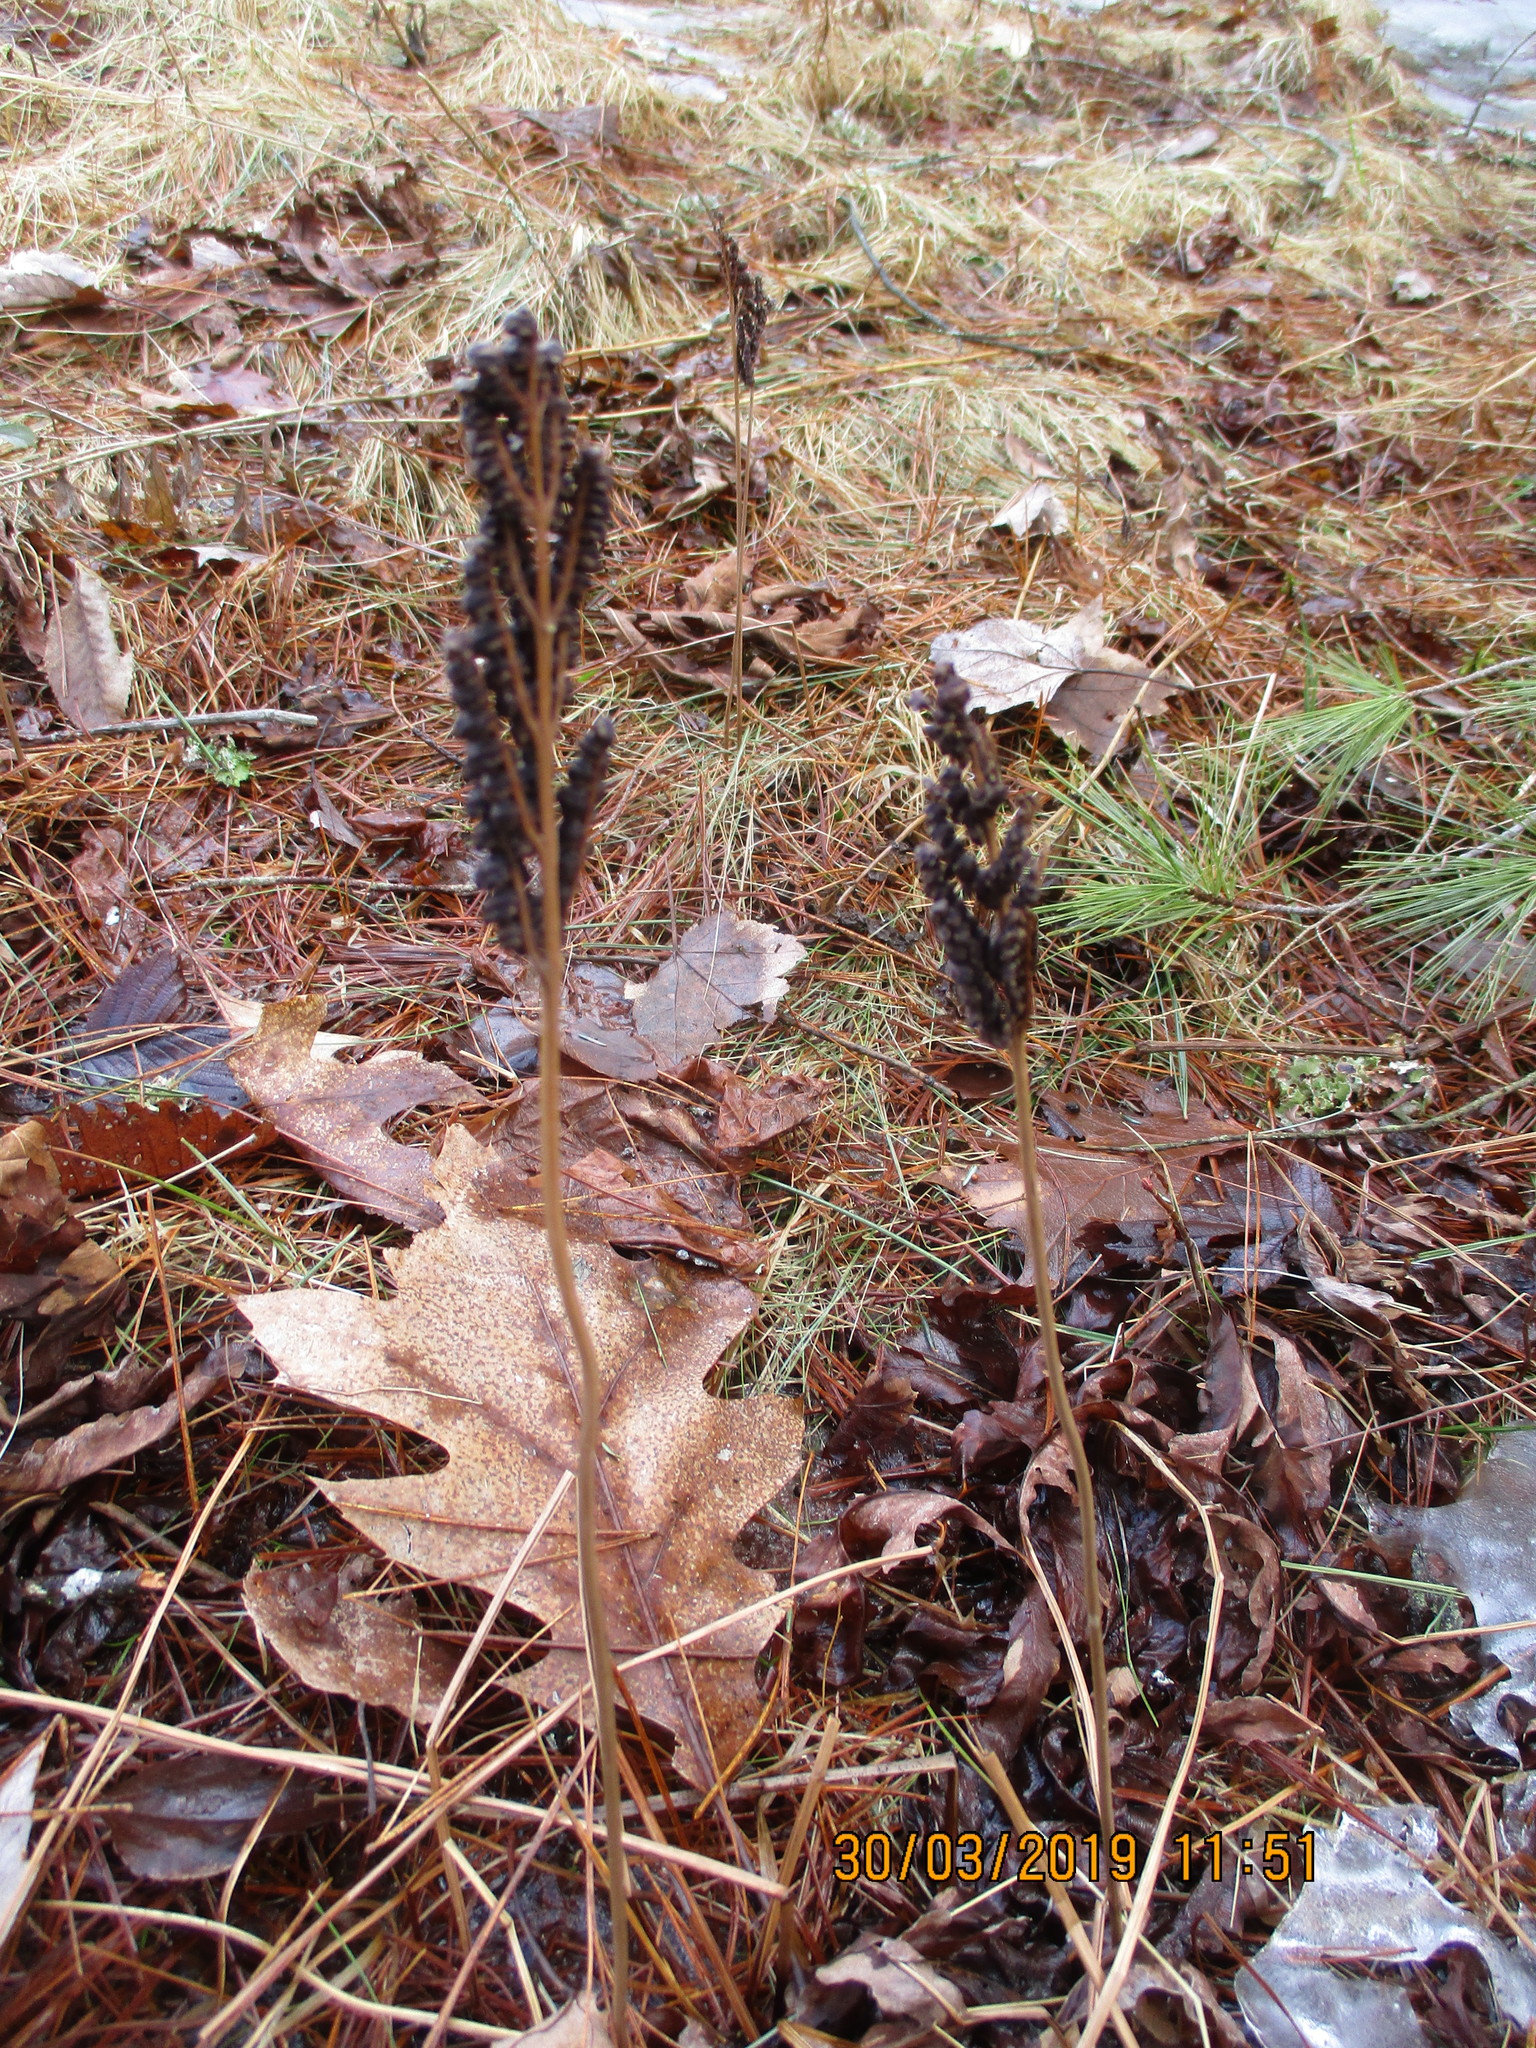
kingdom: Plantae
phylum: Tracheophyta
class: Polypodiopsida
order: Polypodiales
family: Onocleaceae
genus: Onoclea
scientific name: Onoclea sensibilis
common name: Sensitive fern
